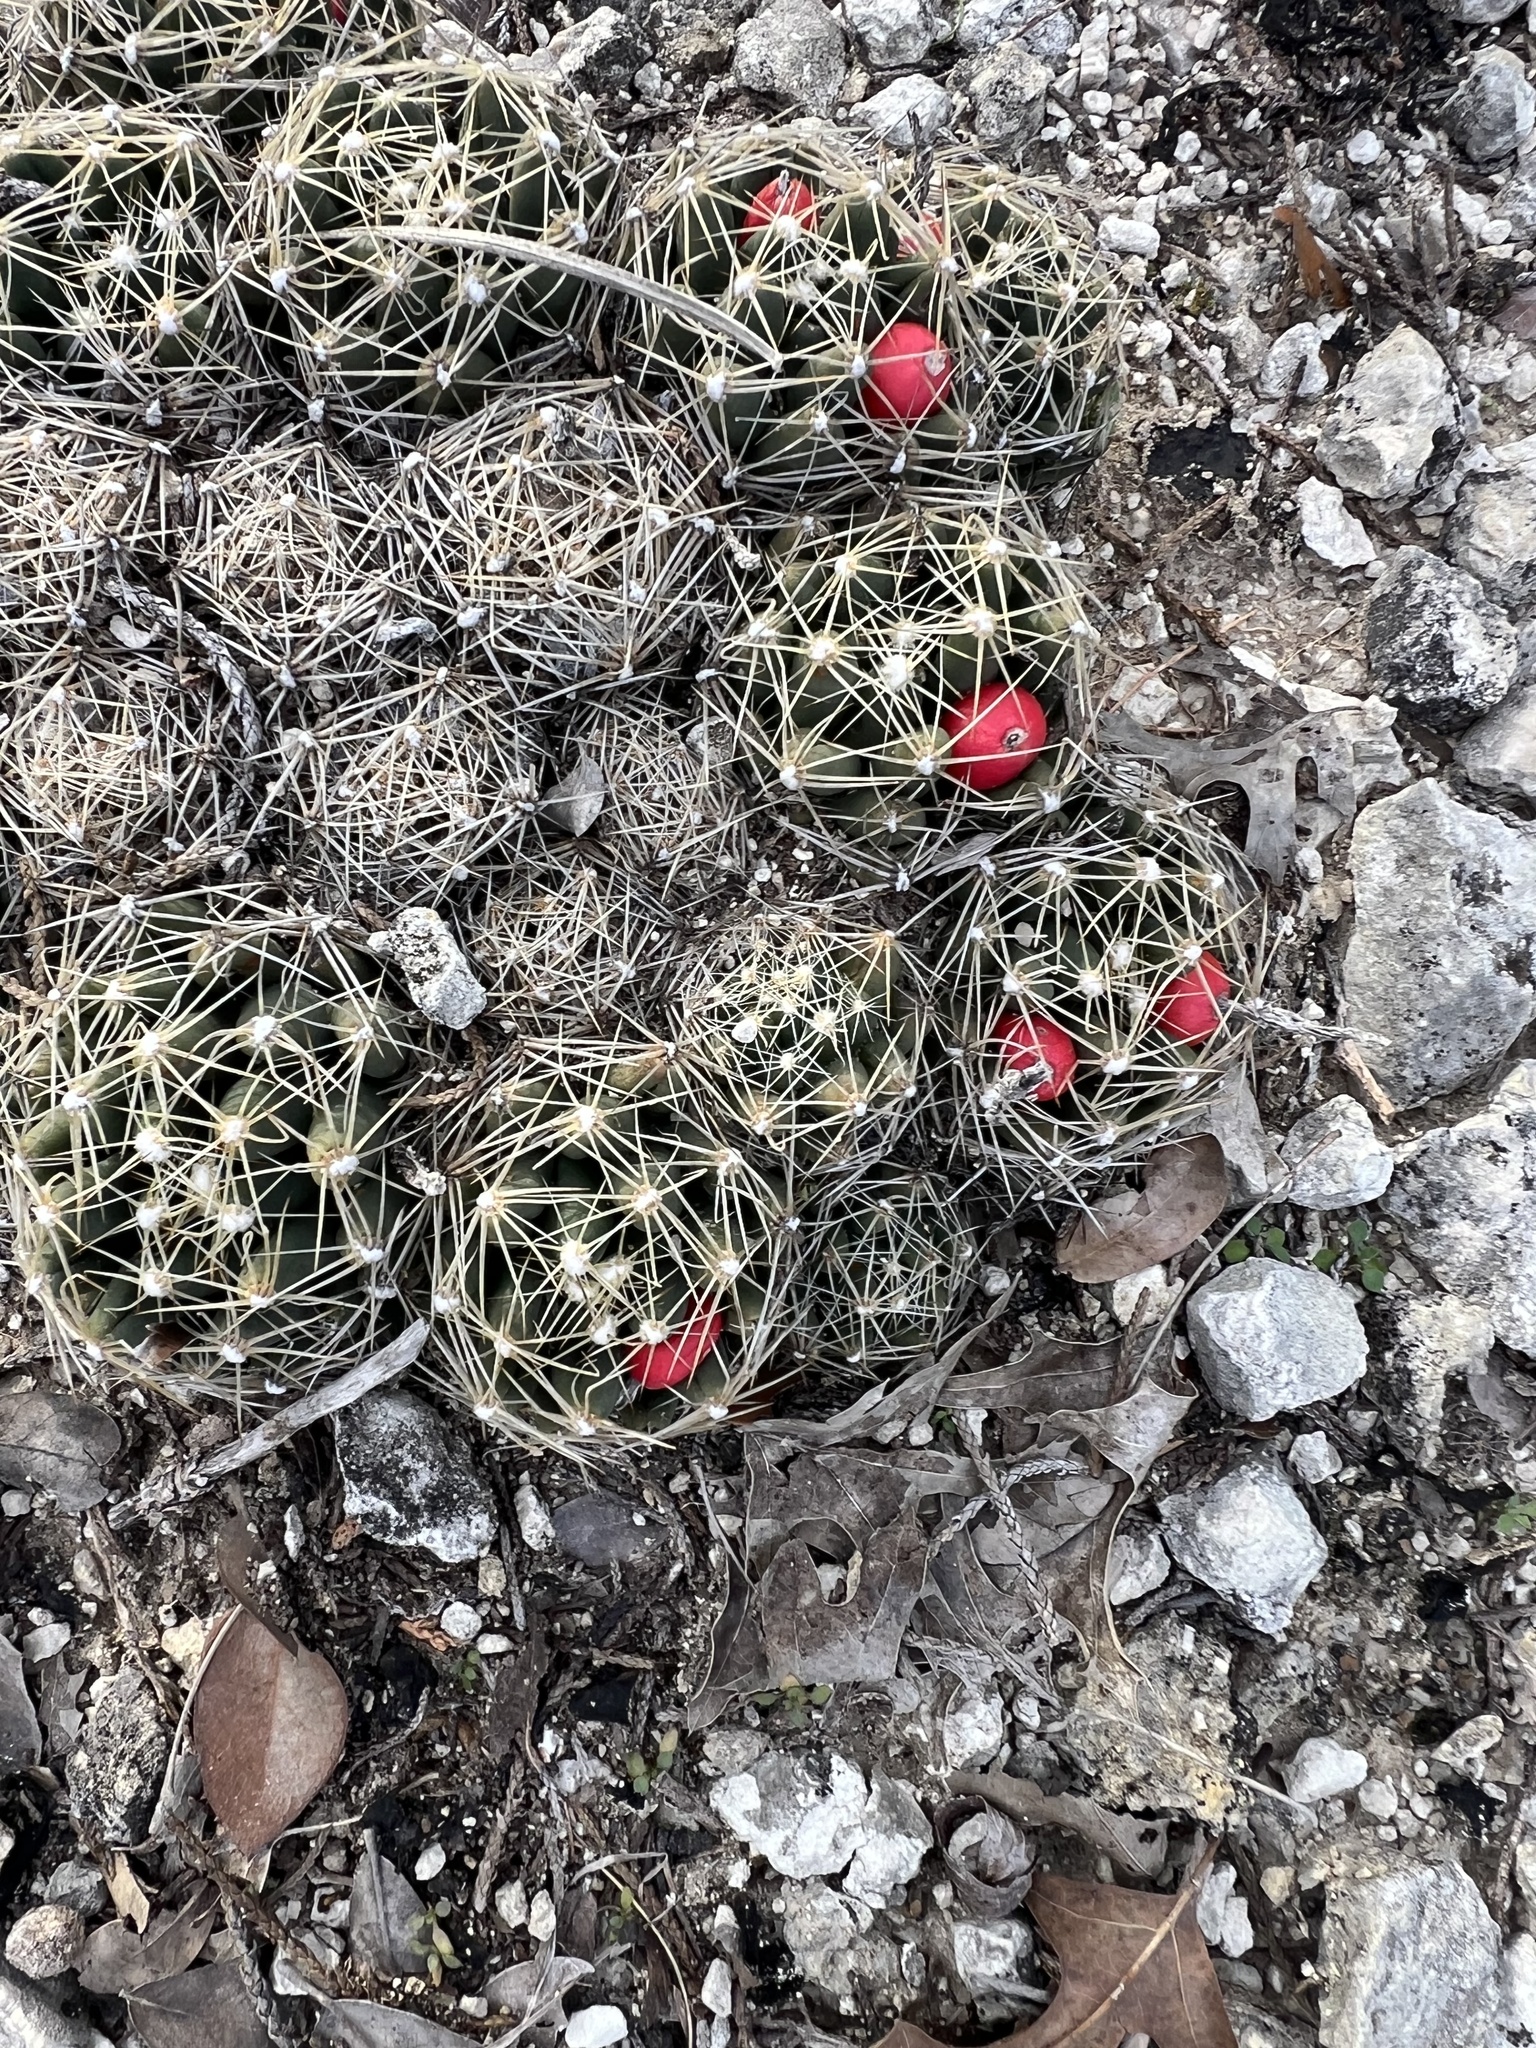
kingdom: Plantae
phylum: Tracheophyta
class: Magnoliopsida
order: Caryophyllales
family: Cactaceae
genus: Pelecyphora
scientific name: Pelecyphora missouriensis
